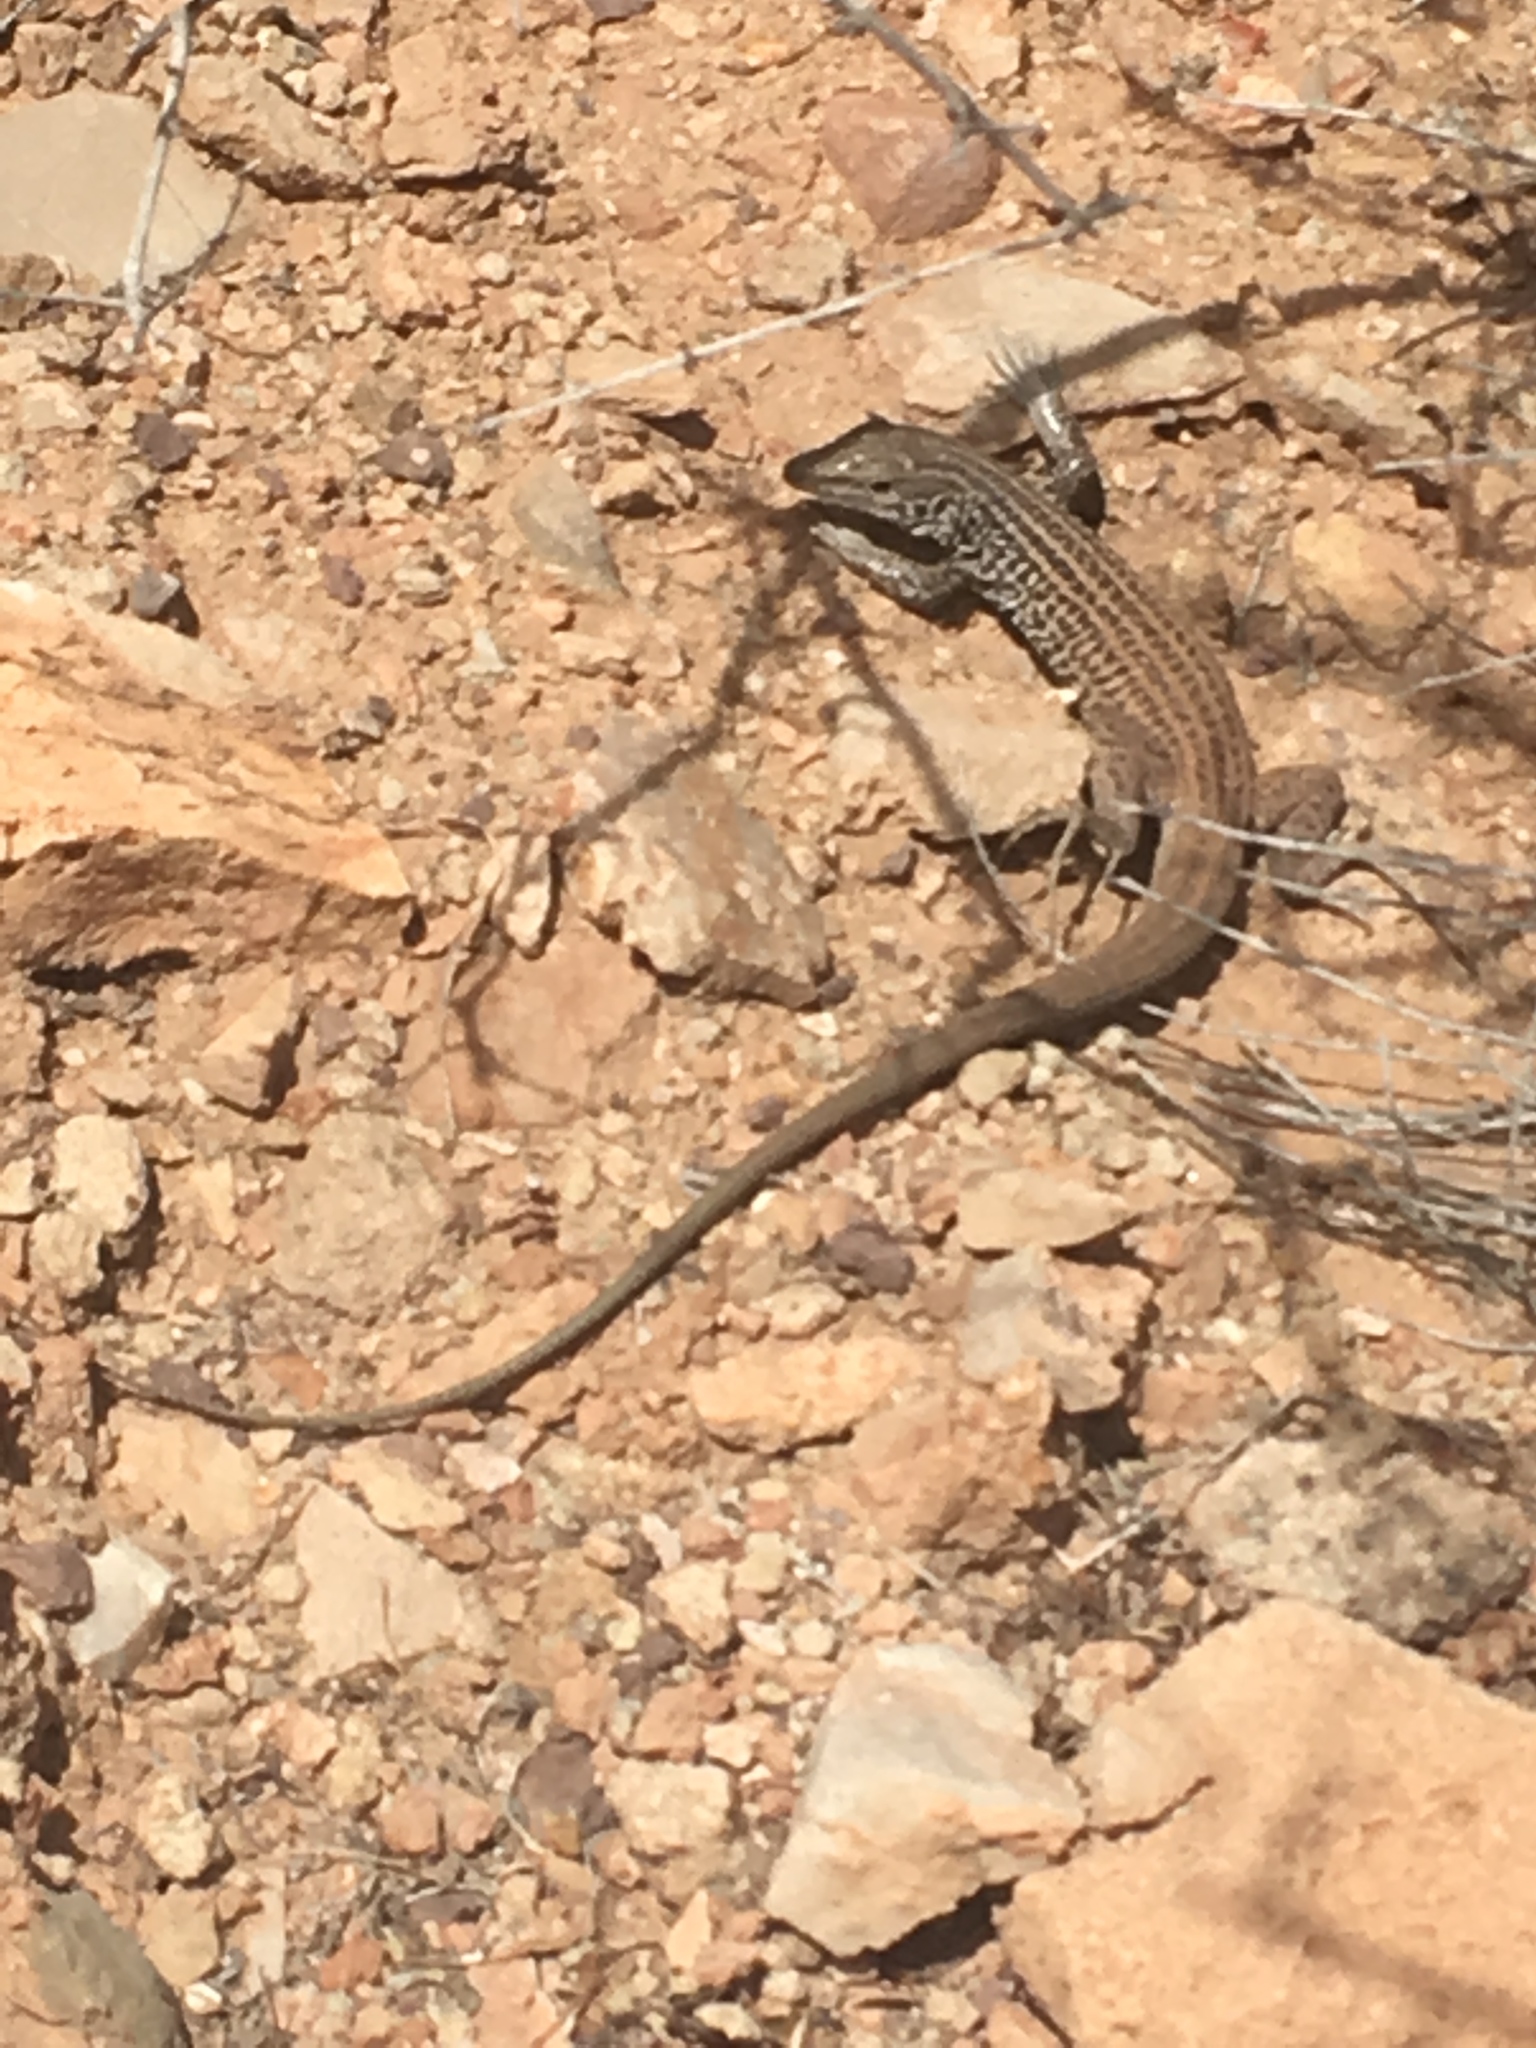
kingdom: Animalia
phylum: Chordata
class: Squamata
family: Teiidae
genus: Aspidoscelis
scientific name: Aspidoscelis tigris
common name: Tiger whiptail
